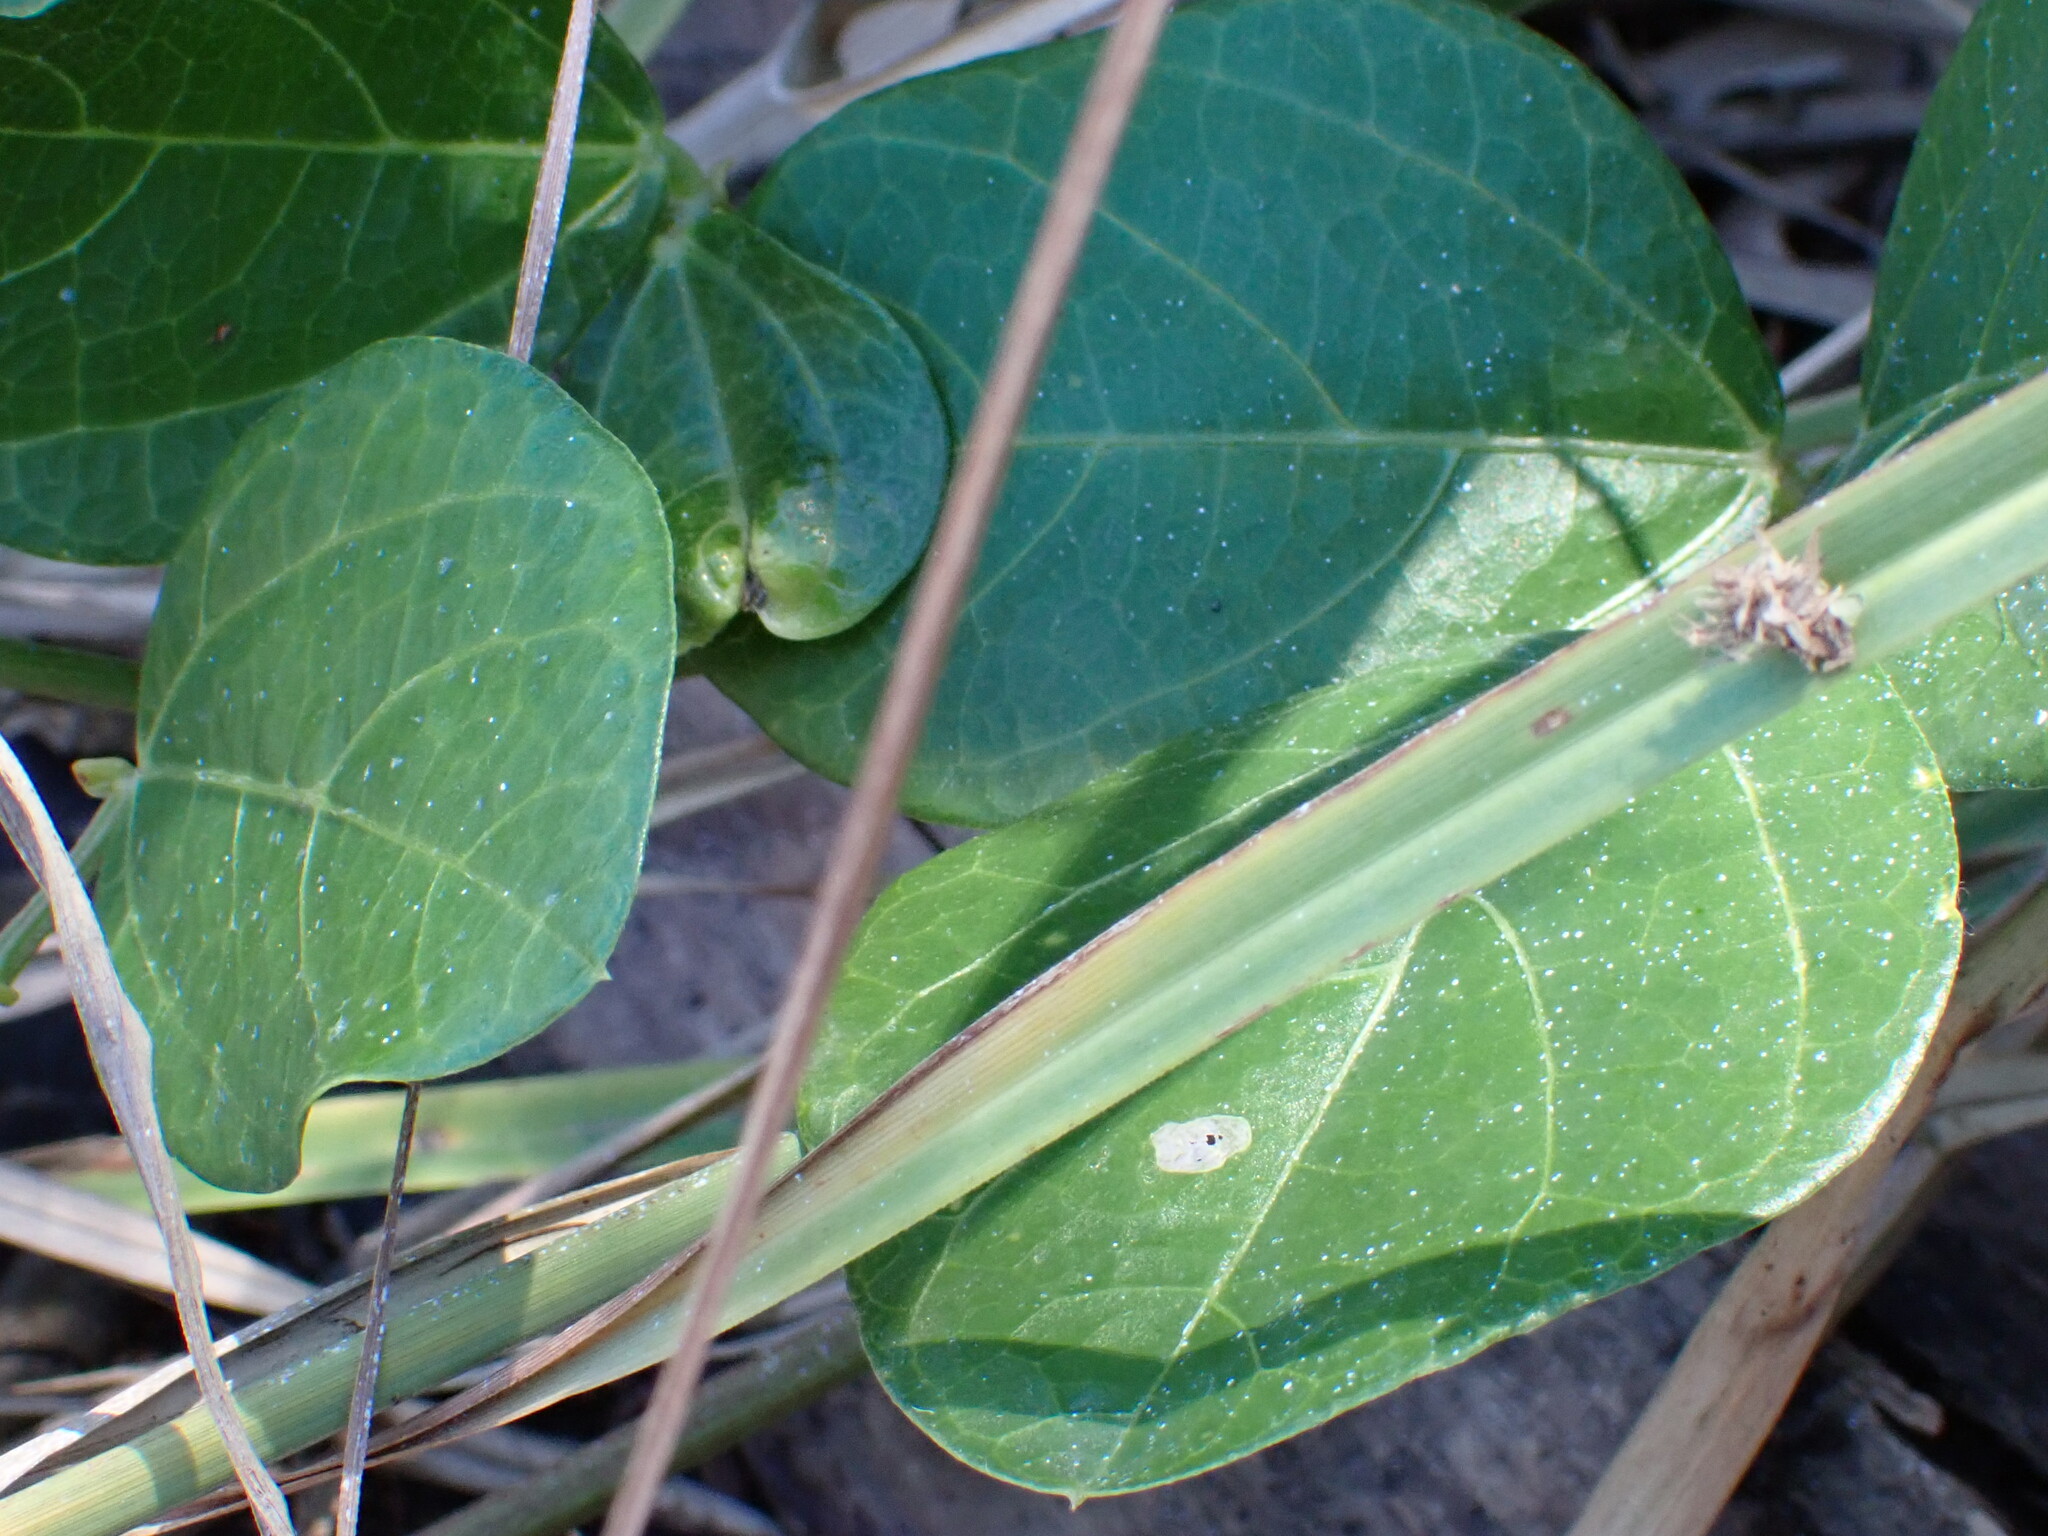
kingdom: Plantae
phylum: Tracheophyta
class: Magnoliopsida
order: Fabales
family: Fabaceae
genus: Vigna
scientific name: Vigna marina
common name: Dune-bean
